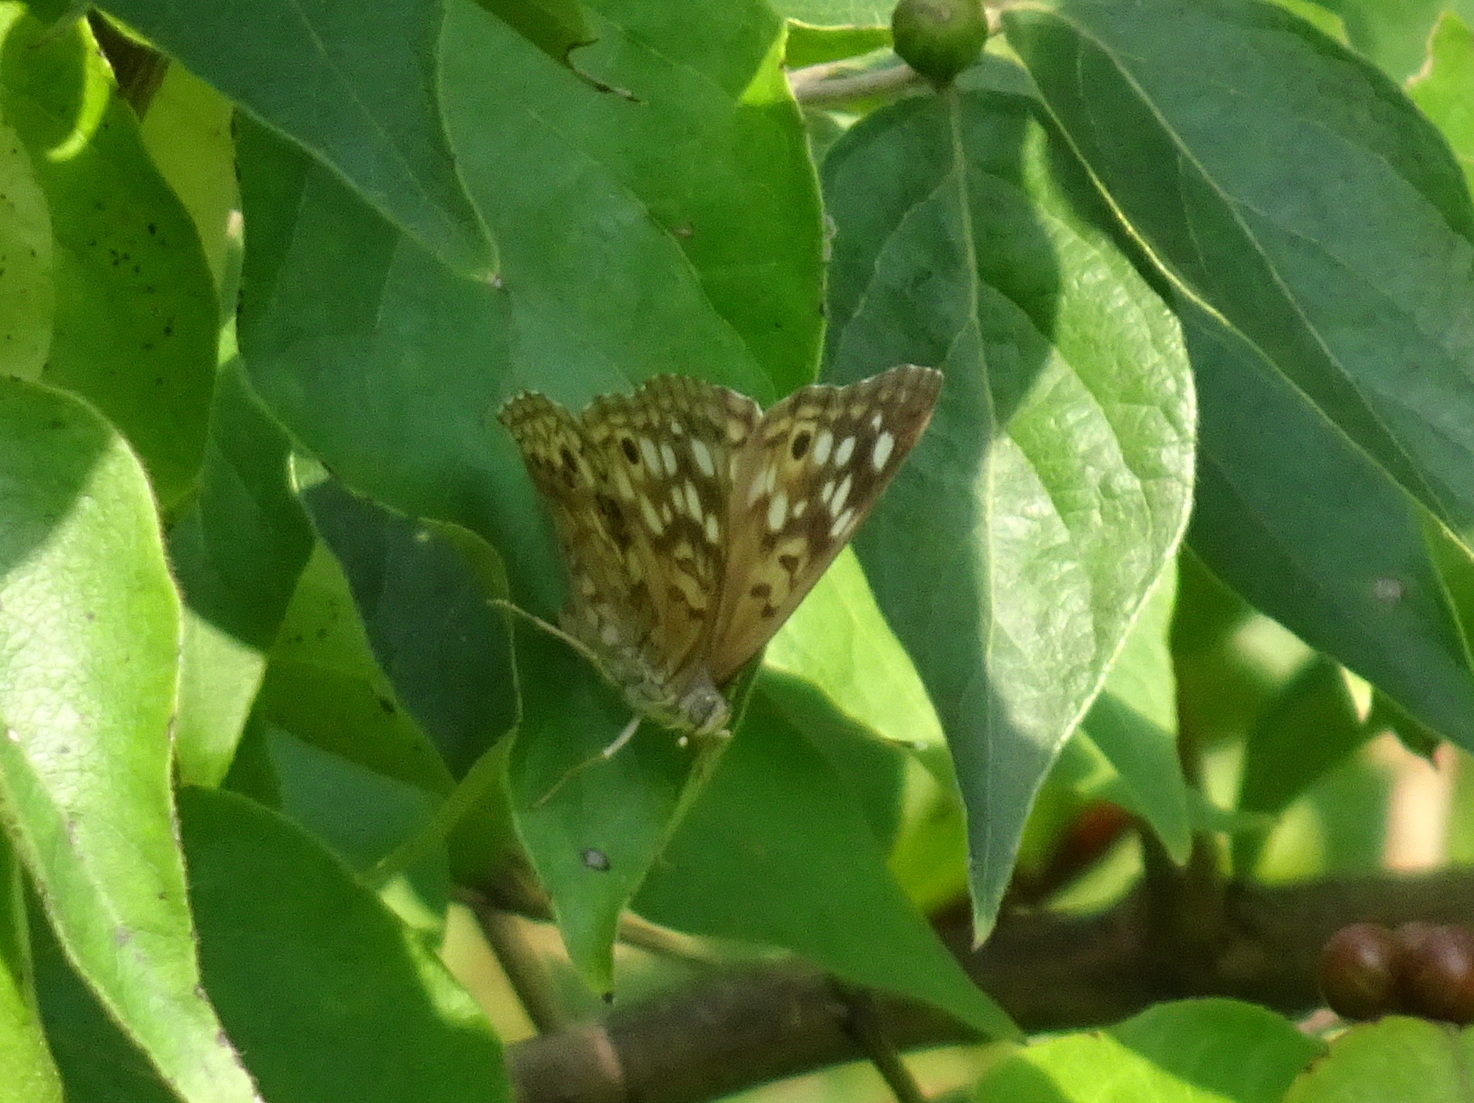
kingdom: Animalia
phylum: Arthropoda
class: Insecta
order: Lepidoptera
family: Nymphalidae
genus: Asterocampa
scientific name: Asterocampa celtis
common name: Hackberry emperor
